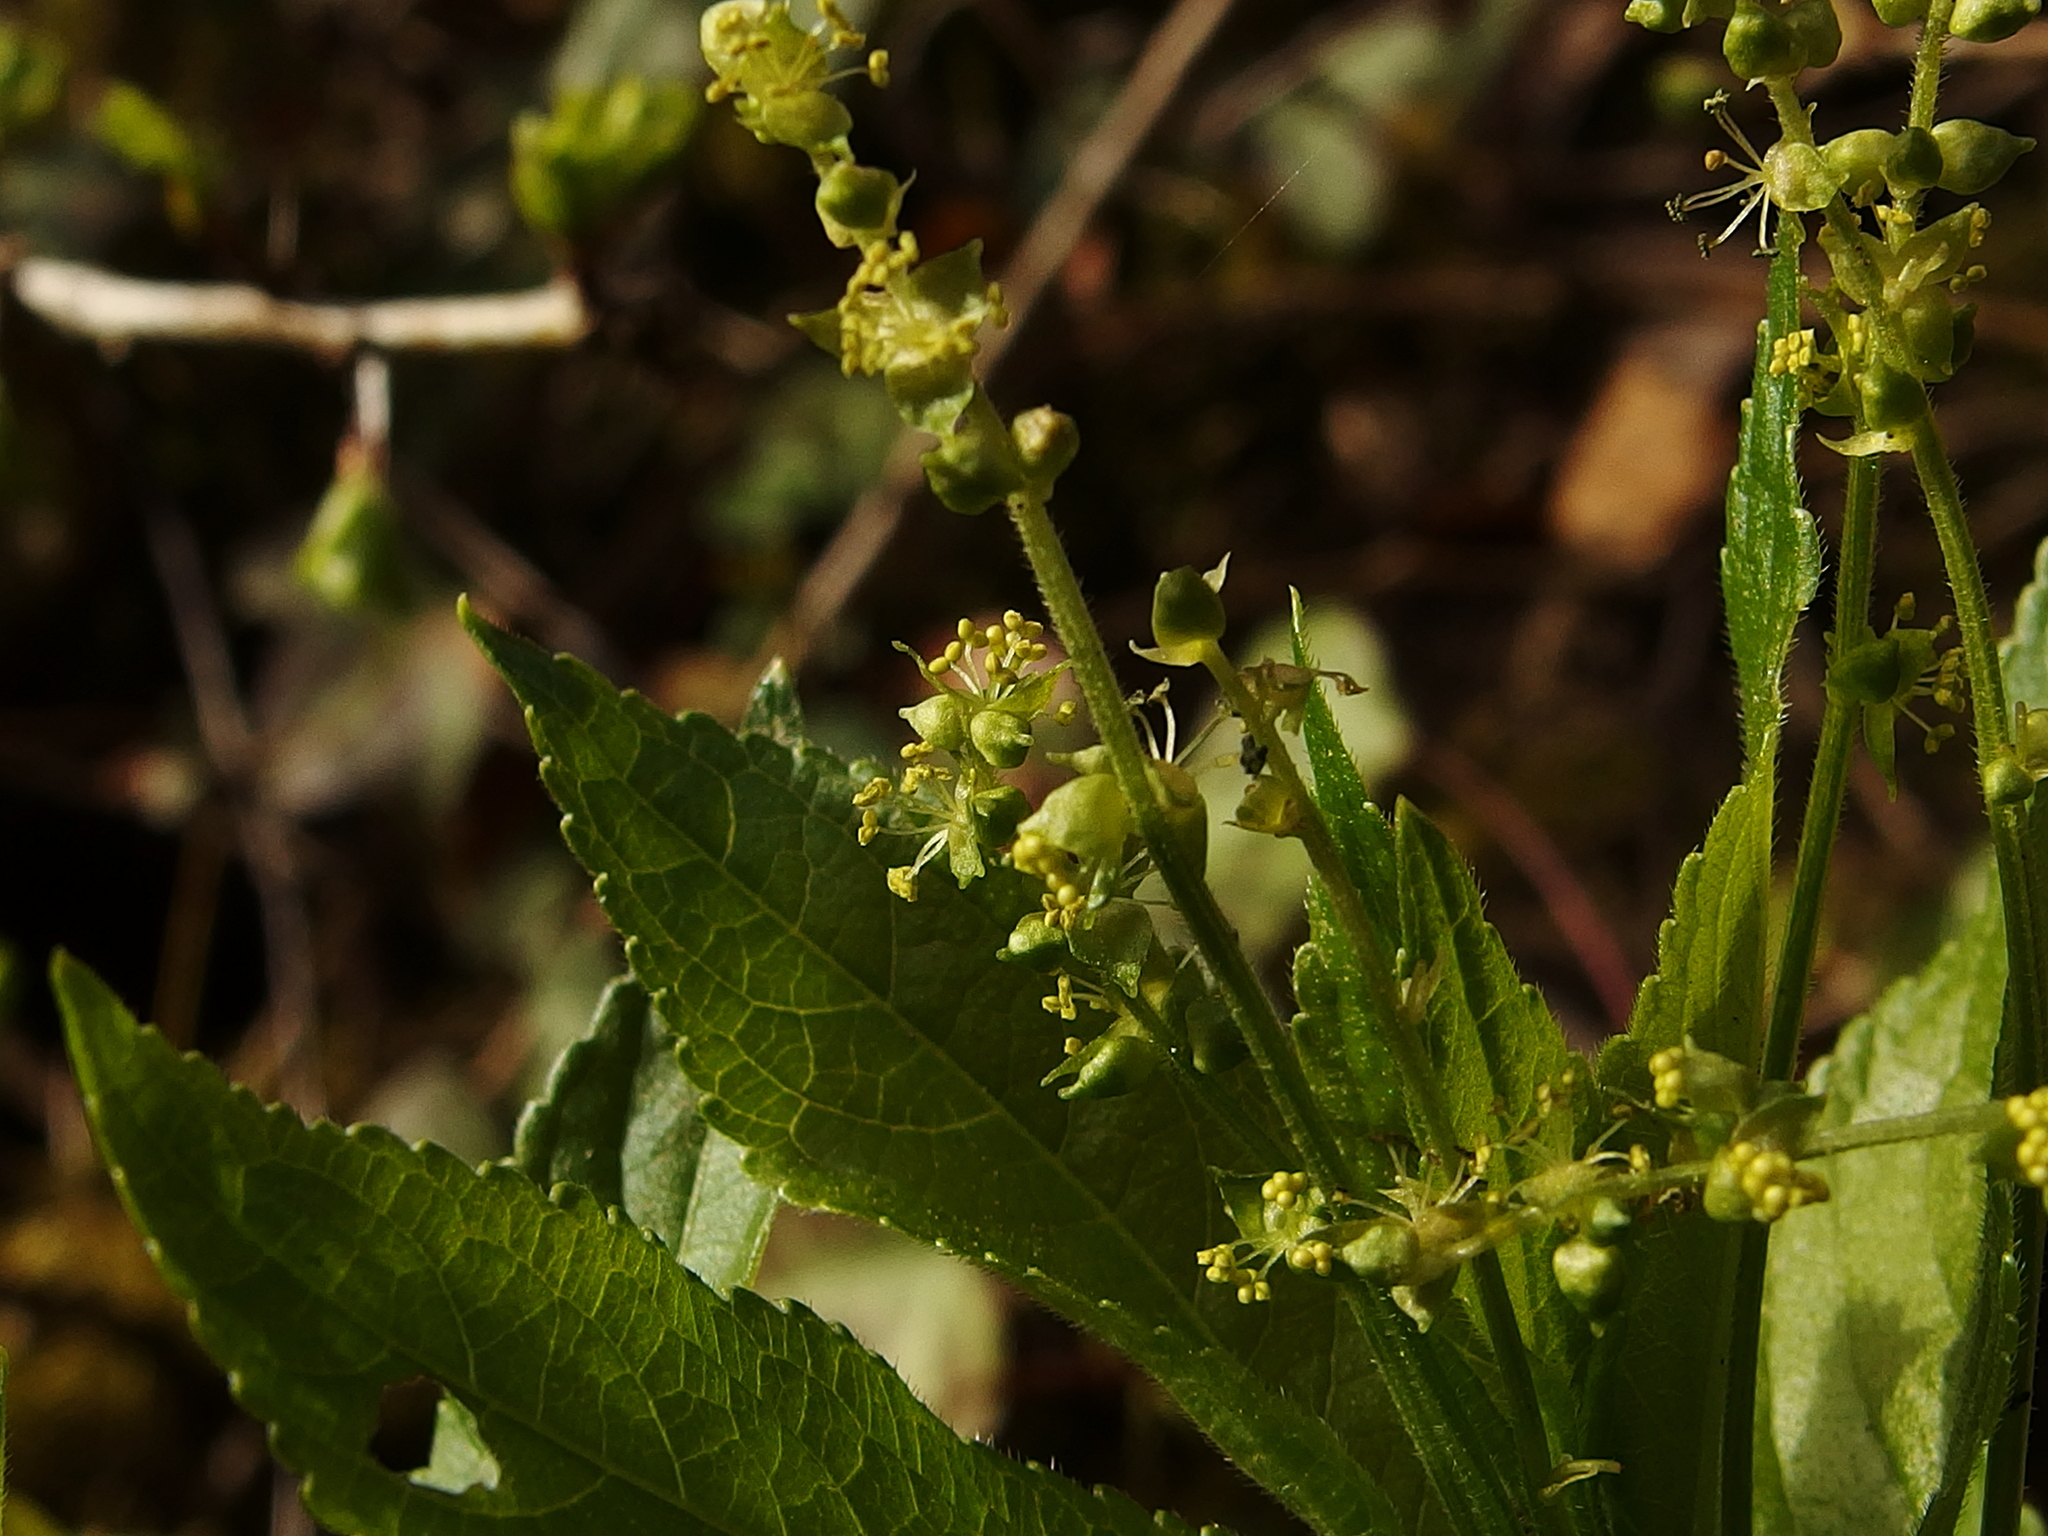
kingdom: Plantae
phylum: Tracheophyta
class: Magnoliopsida
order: Malpighiales
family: Euphorbiaceae
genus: Mercurialis
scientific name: Mercurialis perennis
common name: Dog mercury
